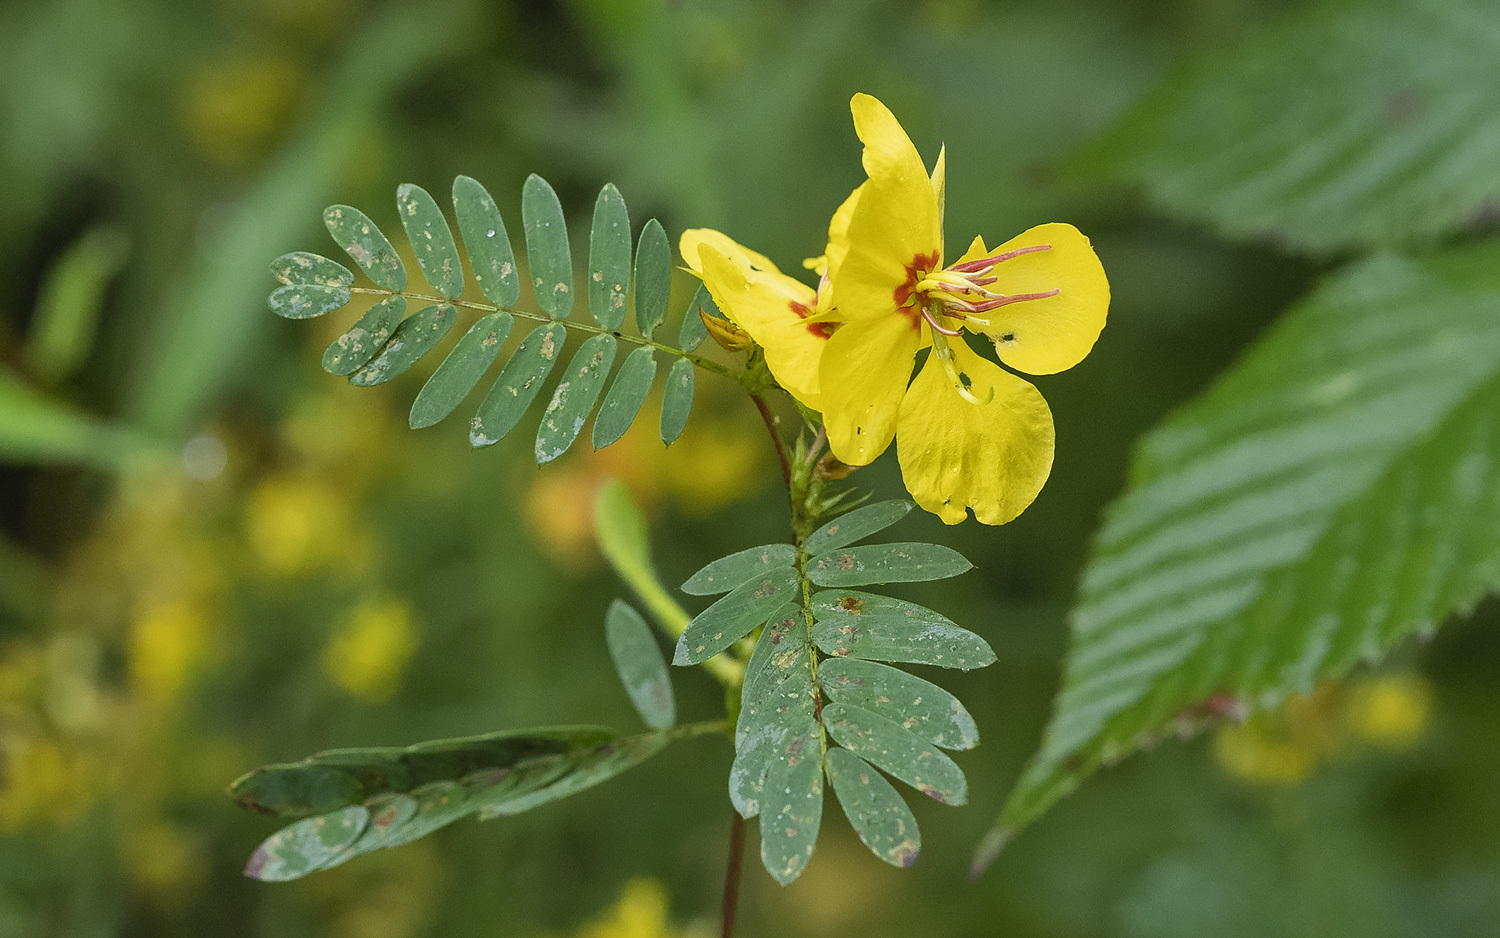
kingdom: Plantae
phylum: Tracheophyta
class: Magnoliopsida
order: Fabales
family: Fabaceae
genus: Chamaecrista
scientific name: Chamaecrista fasciculata
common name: Golden cassia
